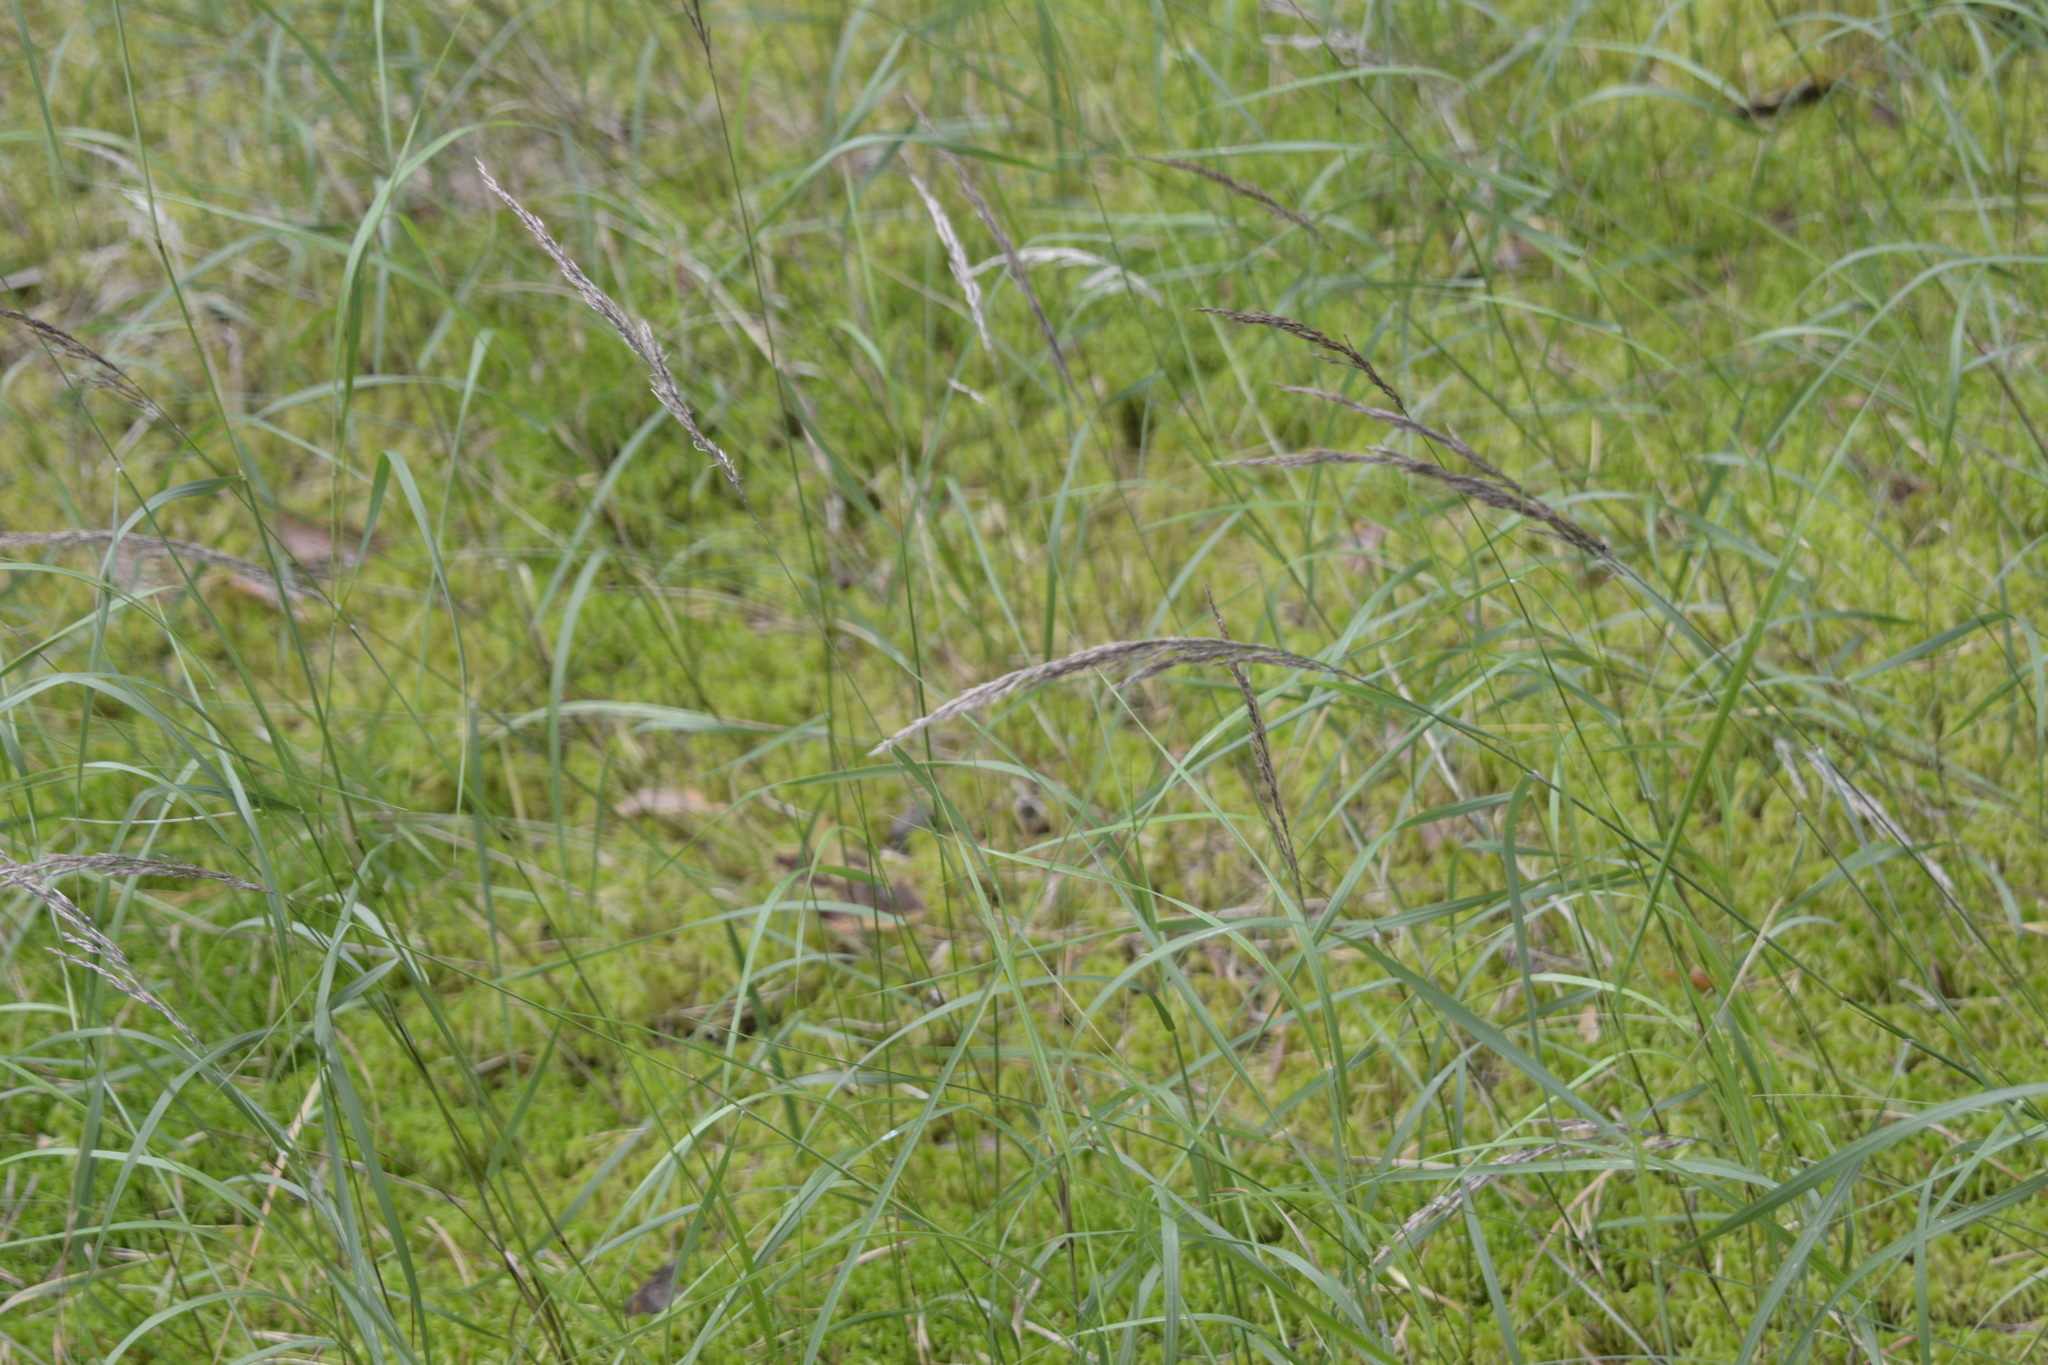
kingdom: Plantae
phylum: Tracheophyta
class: Liliopsida
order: Poales
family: Poaceae
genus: Calamagrostis
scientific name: Calamagrostis canescens
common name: Purple small-reed
